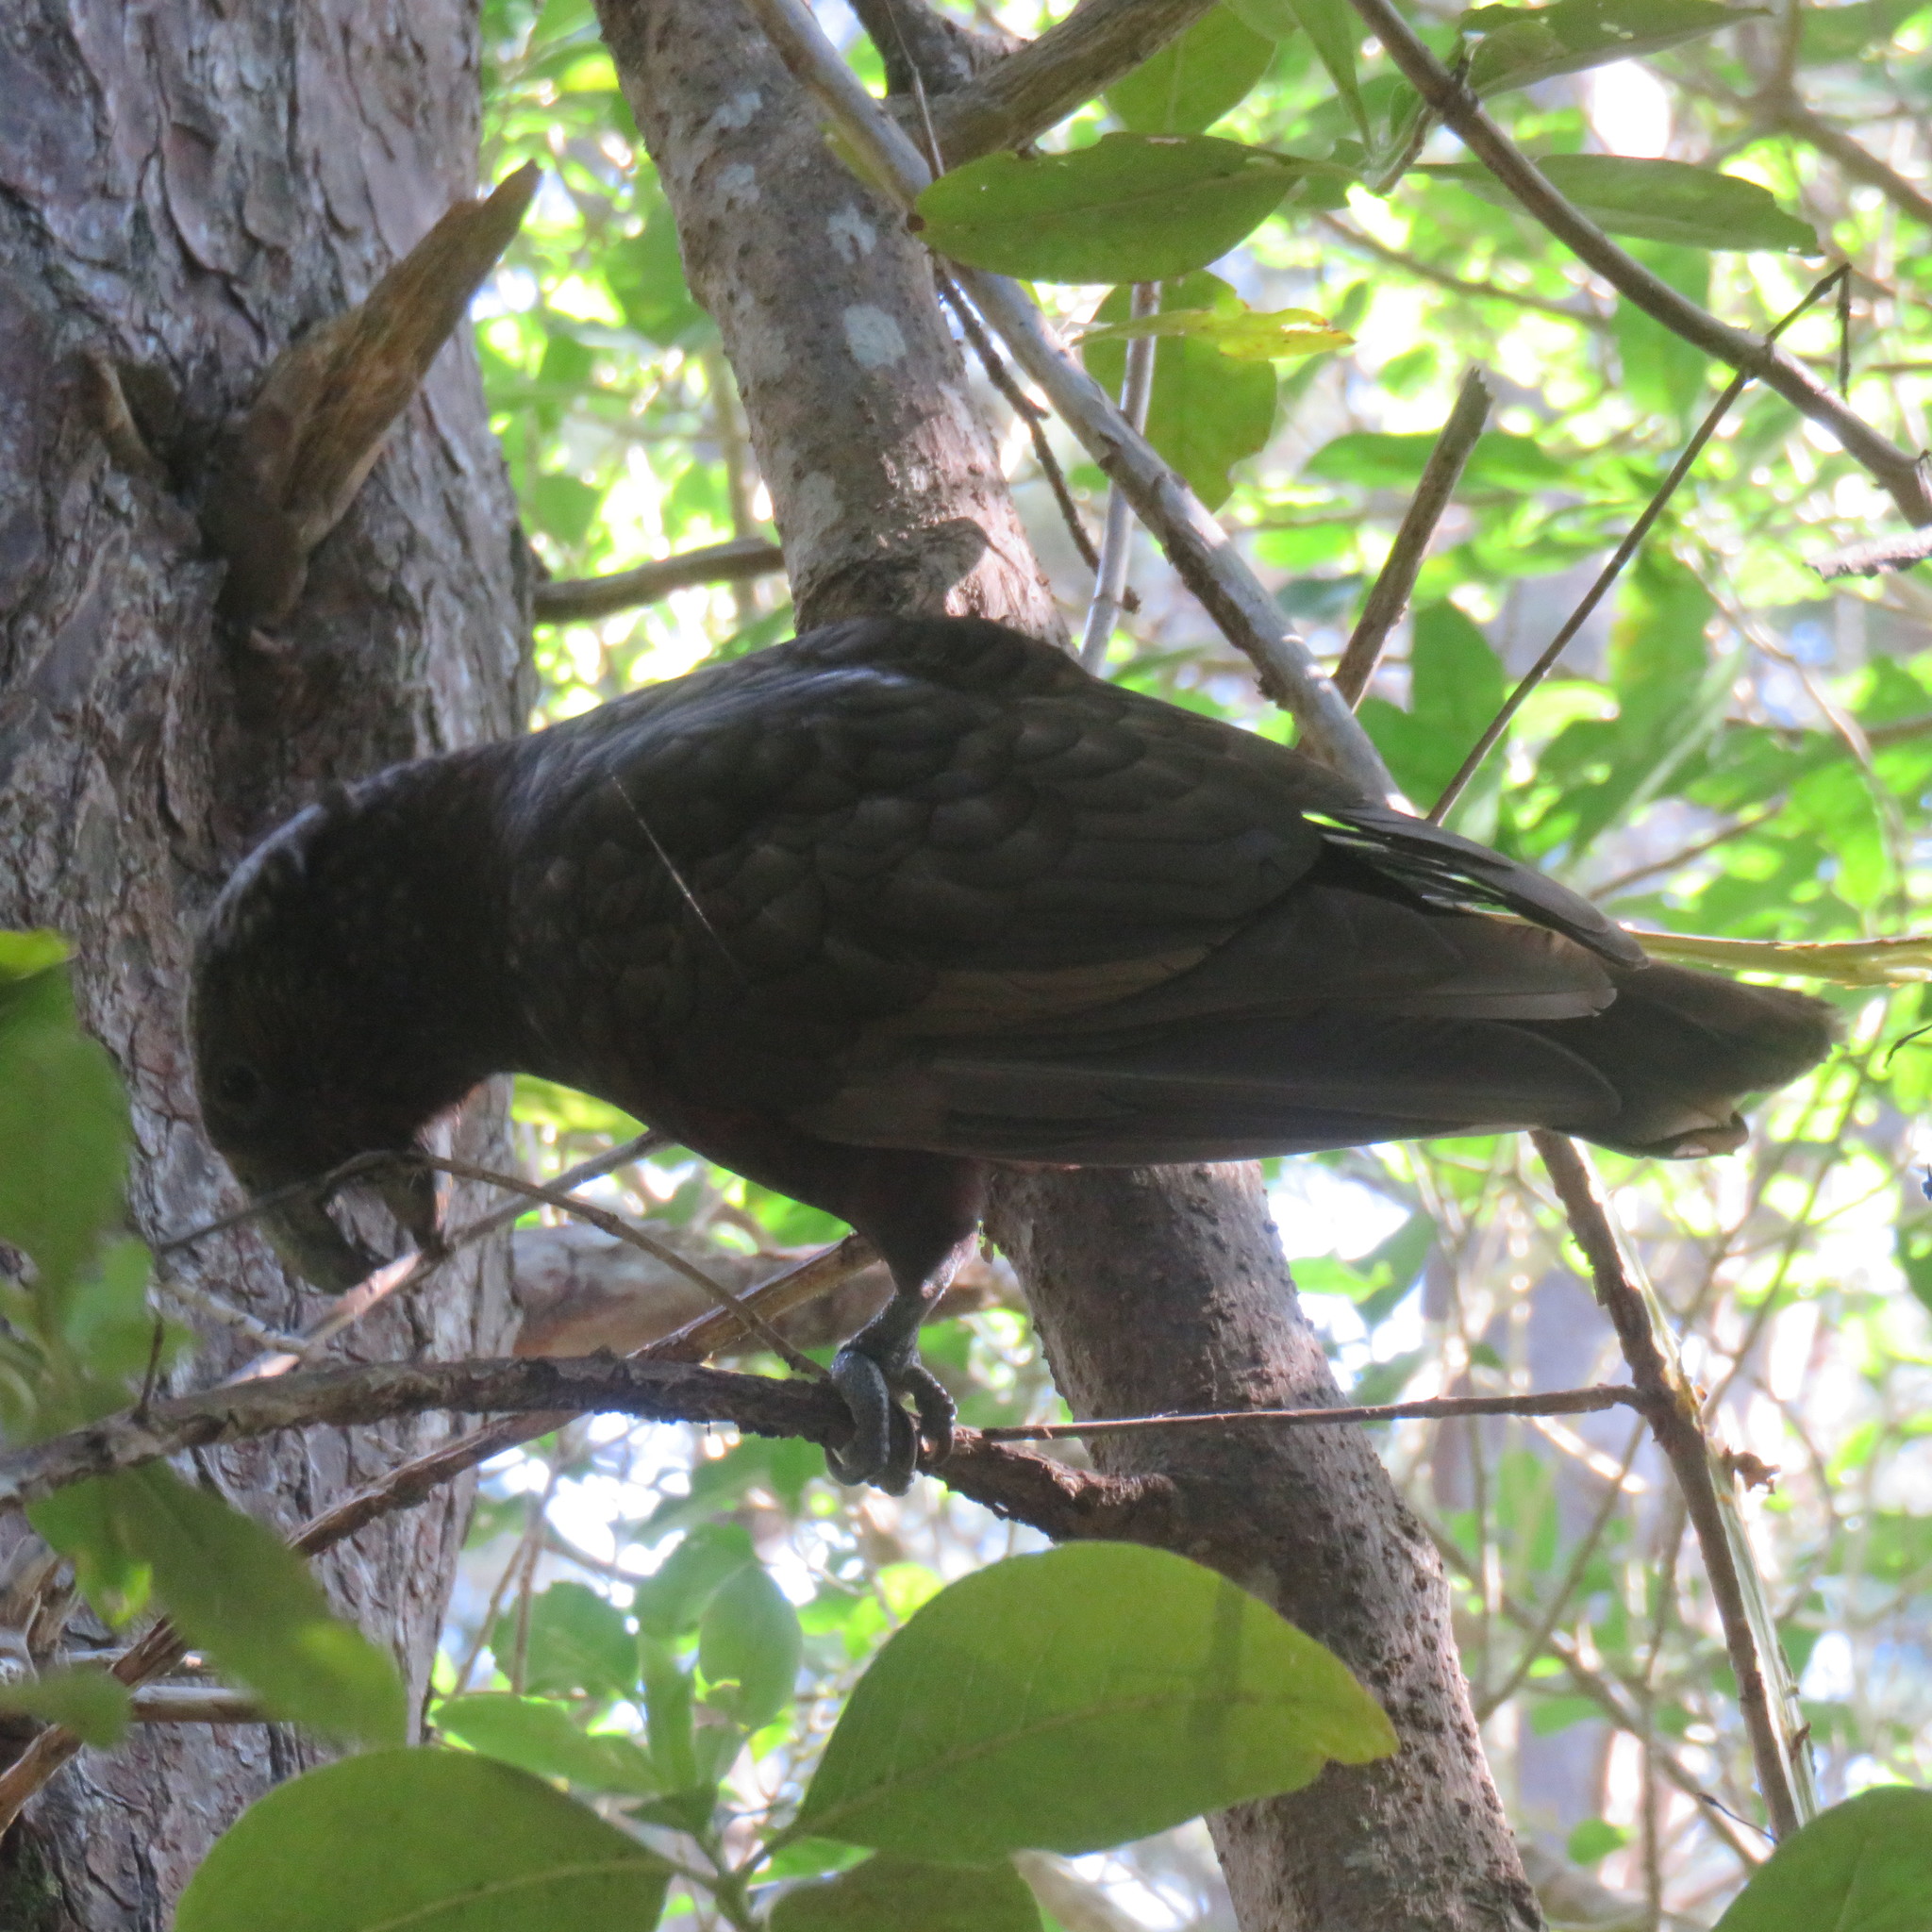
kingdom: Animalia
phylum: Chordata
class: Aves
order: Psittaciformes
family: Psittacidae
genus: Nestor
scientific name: Nestor meridionalis
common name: New zealand kaka
